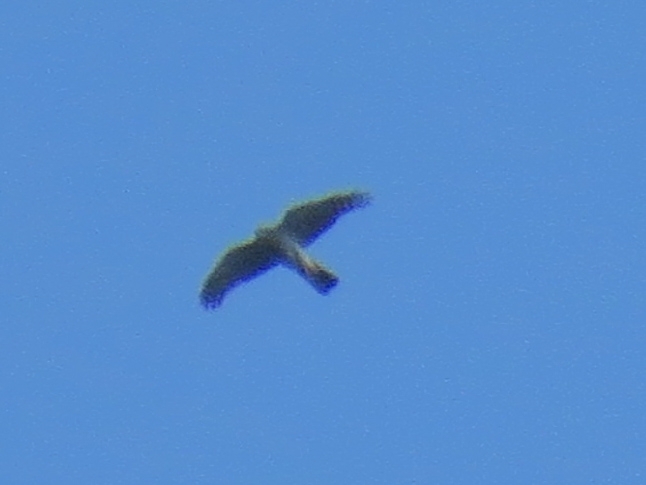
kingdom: Animalia
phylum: Chordata
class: Aves
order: Accipitriformes
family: Accipitridae
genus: Accipiter
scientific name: Accipiter nisus
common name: Eurasian sparrowhawk
